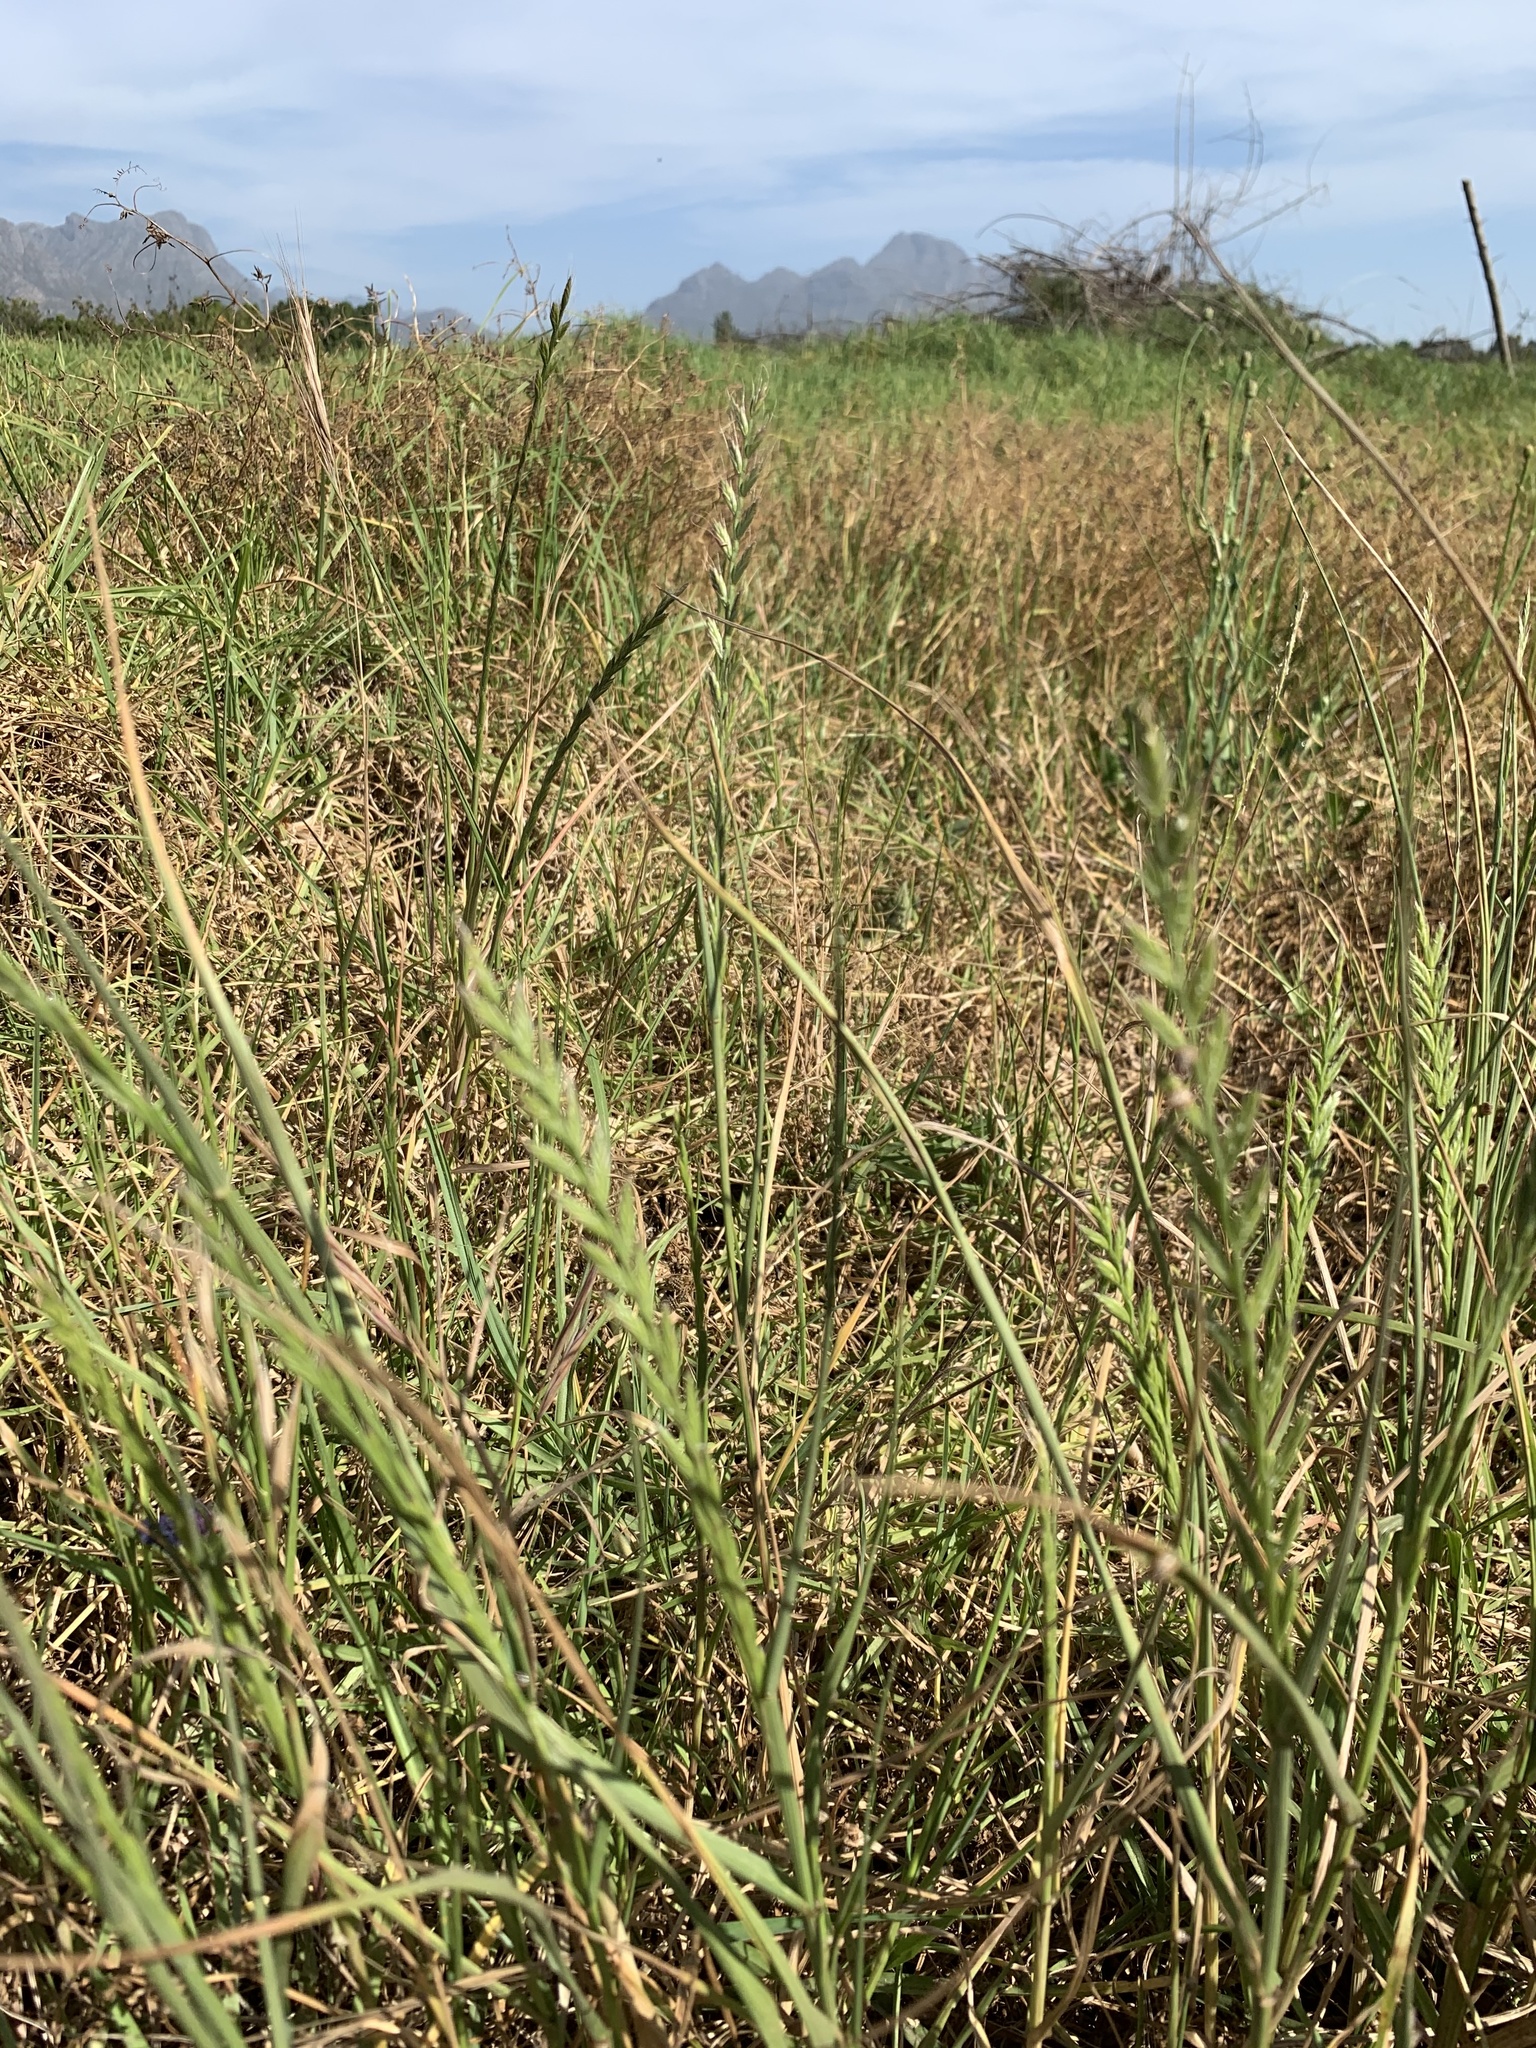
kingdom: Plantae
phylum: Tracheophyta
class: Liliopsida
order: Poales
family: Poaceae
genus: Lolium
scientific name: Lolium multiflorum
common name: Annual ryegrass
